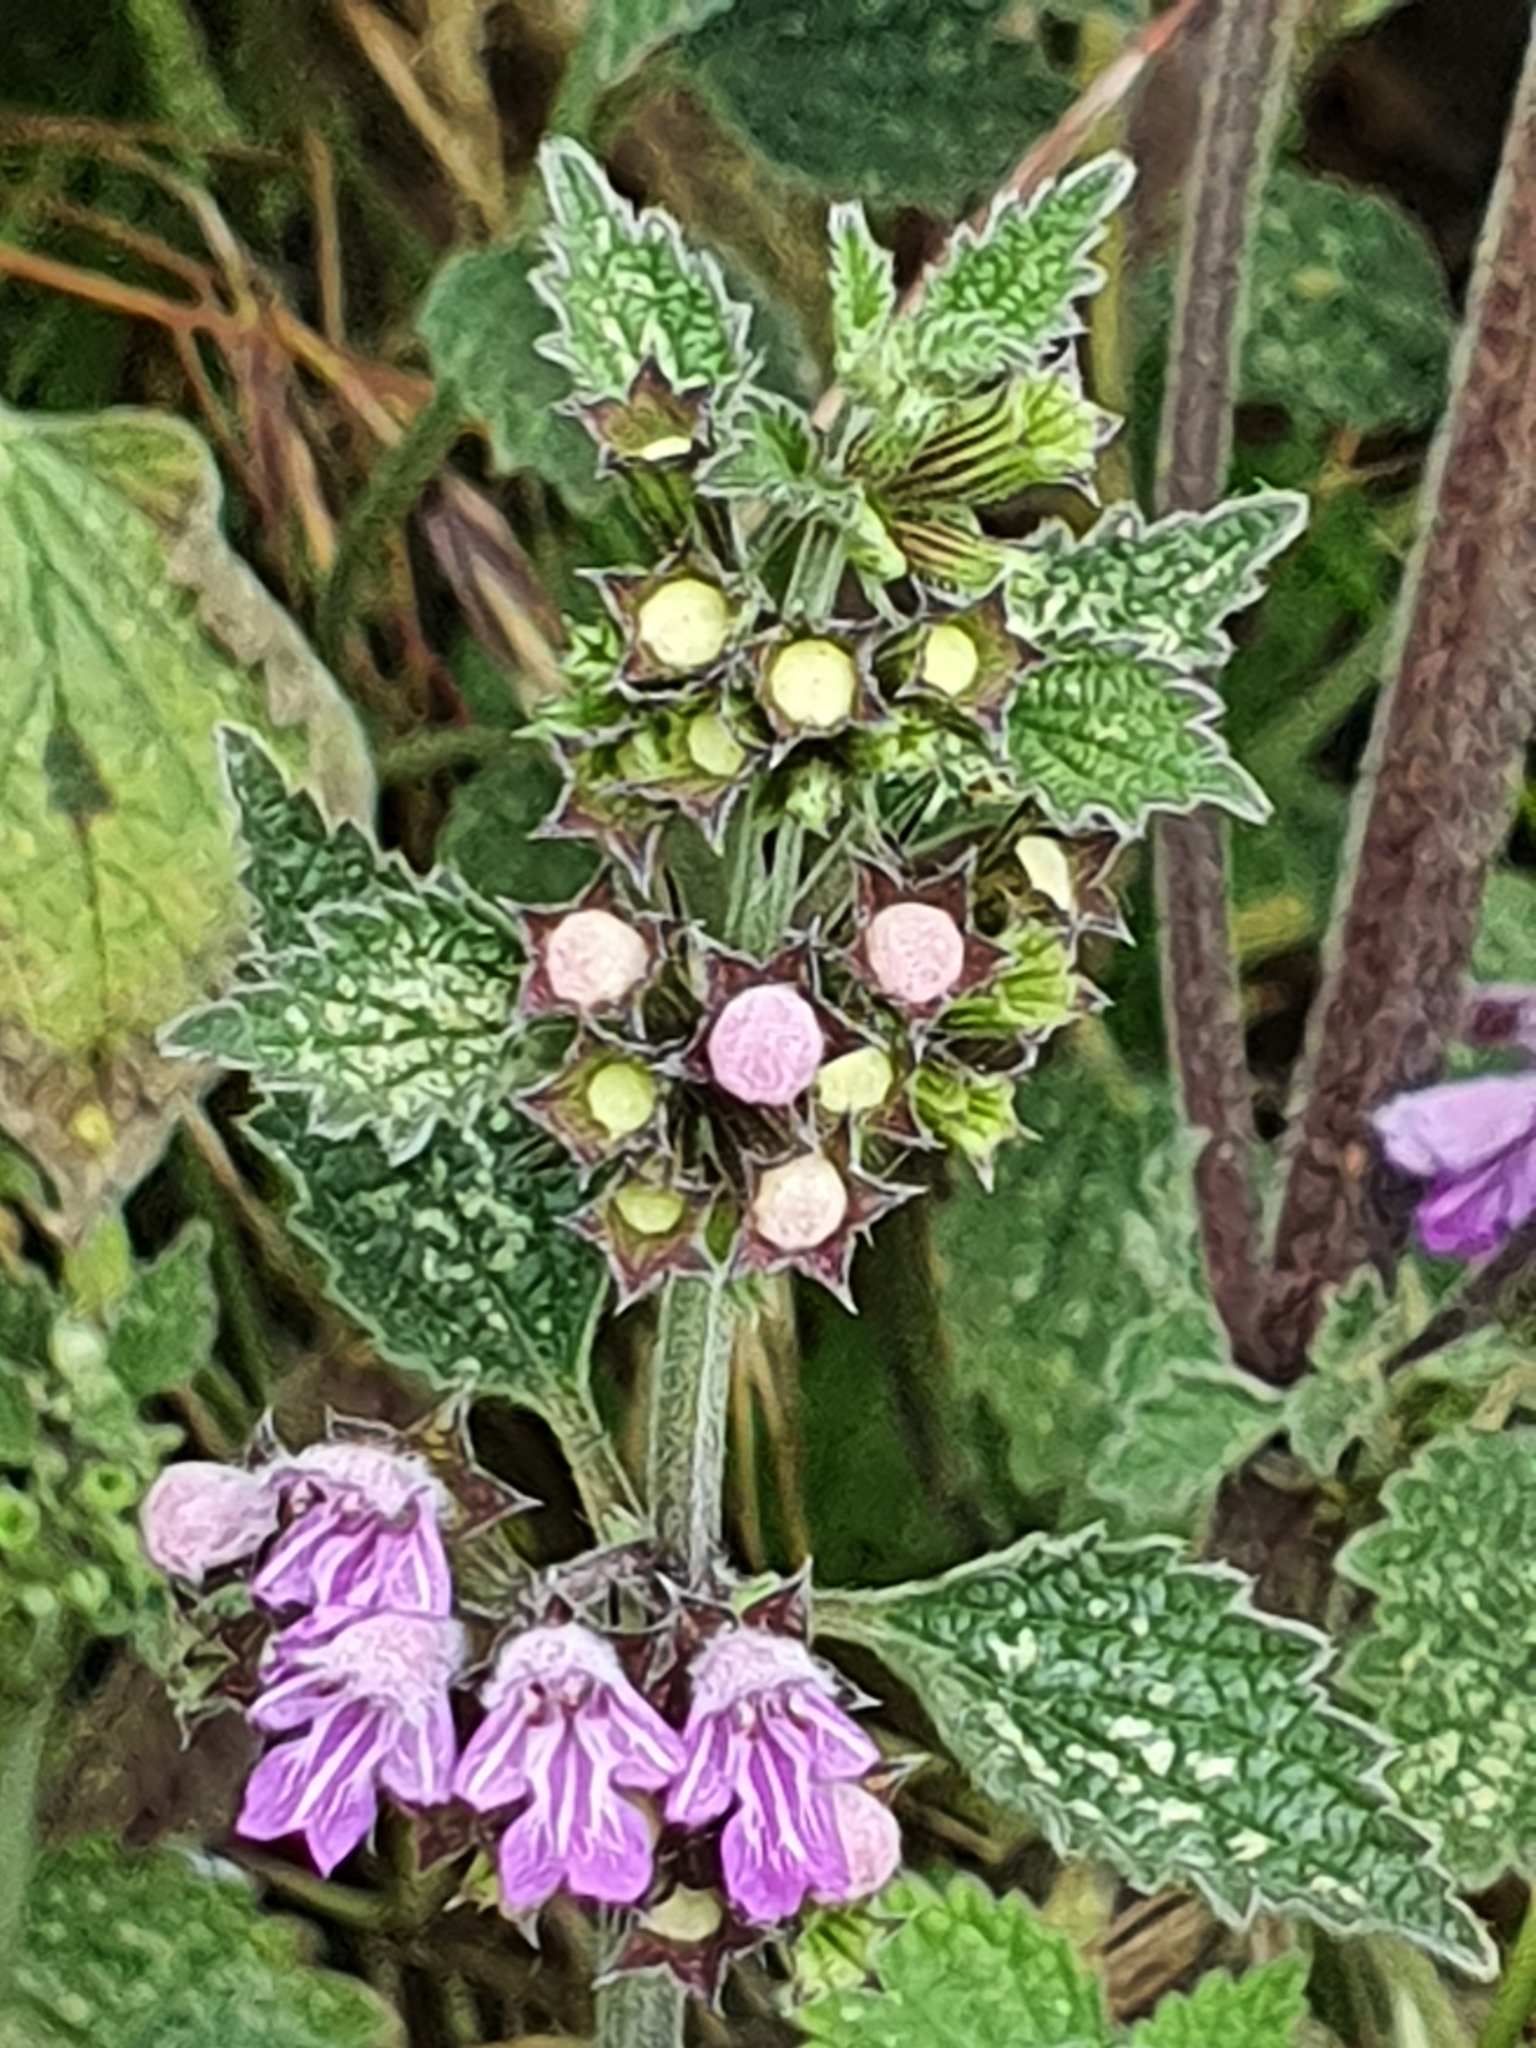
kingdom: Plantae
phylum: Tracheophyta
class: Magnoliopsida
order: Lamiales
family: Lamiaceae
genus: Ballota
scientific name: Ballota nigra
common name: Black horehound
